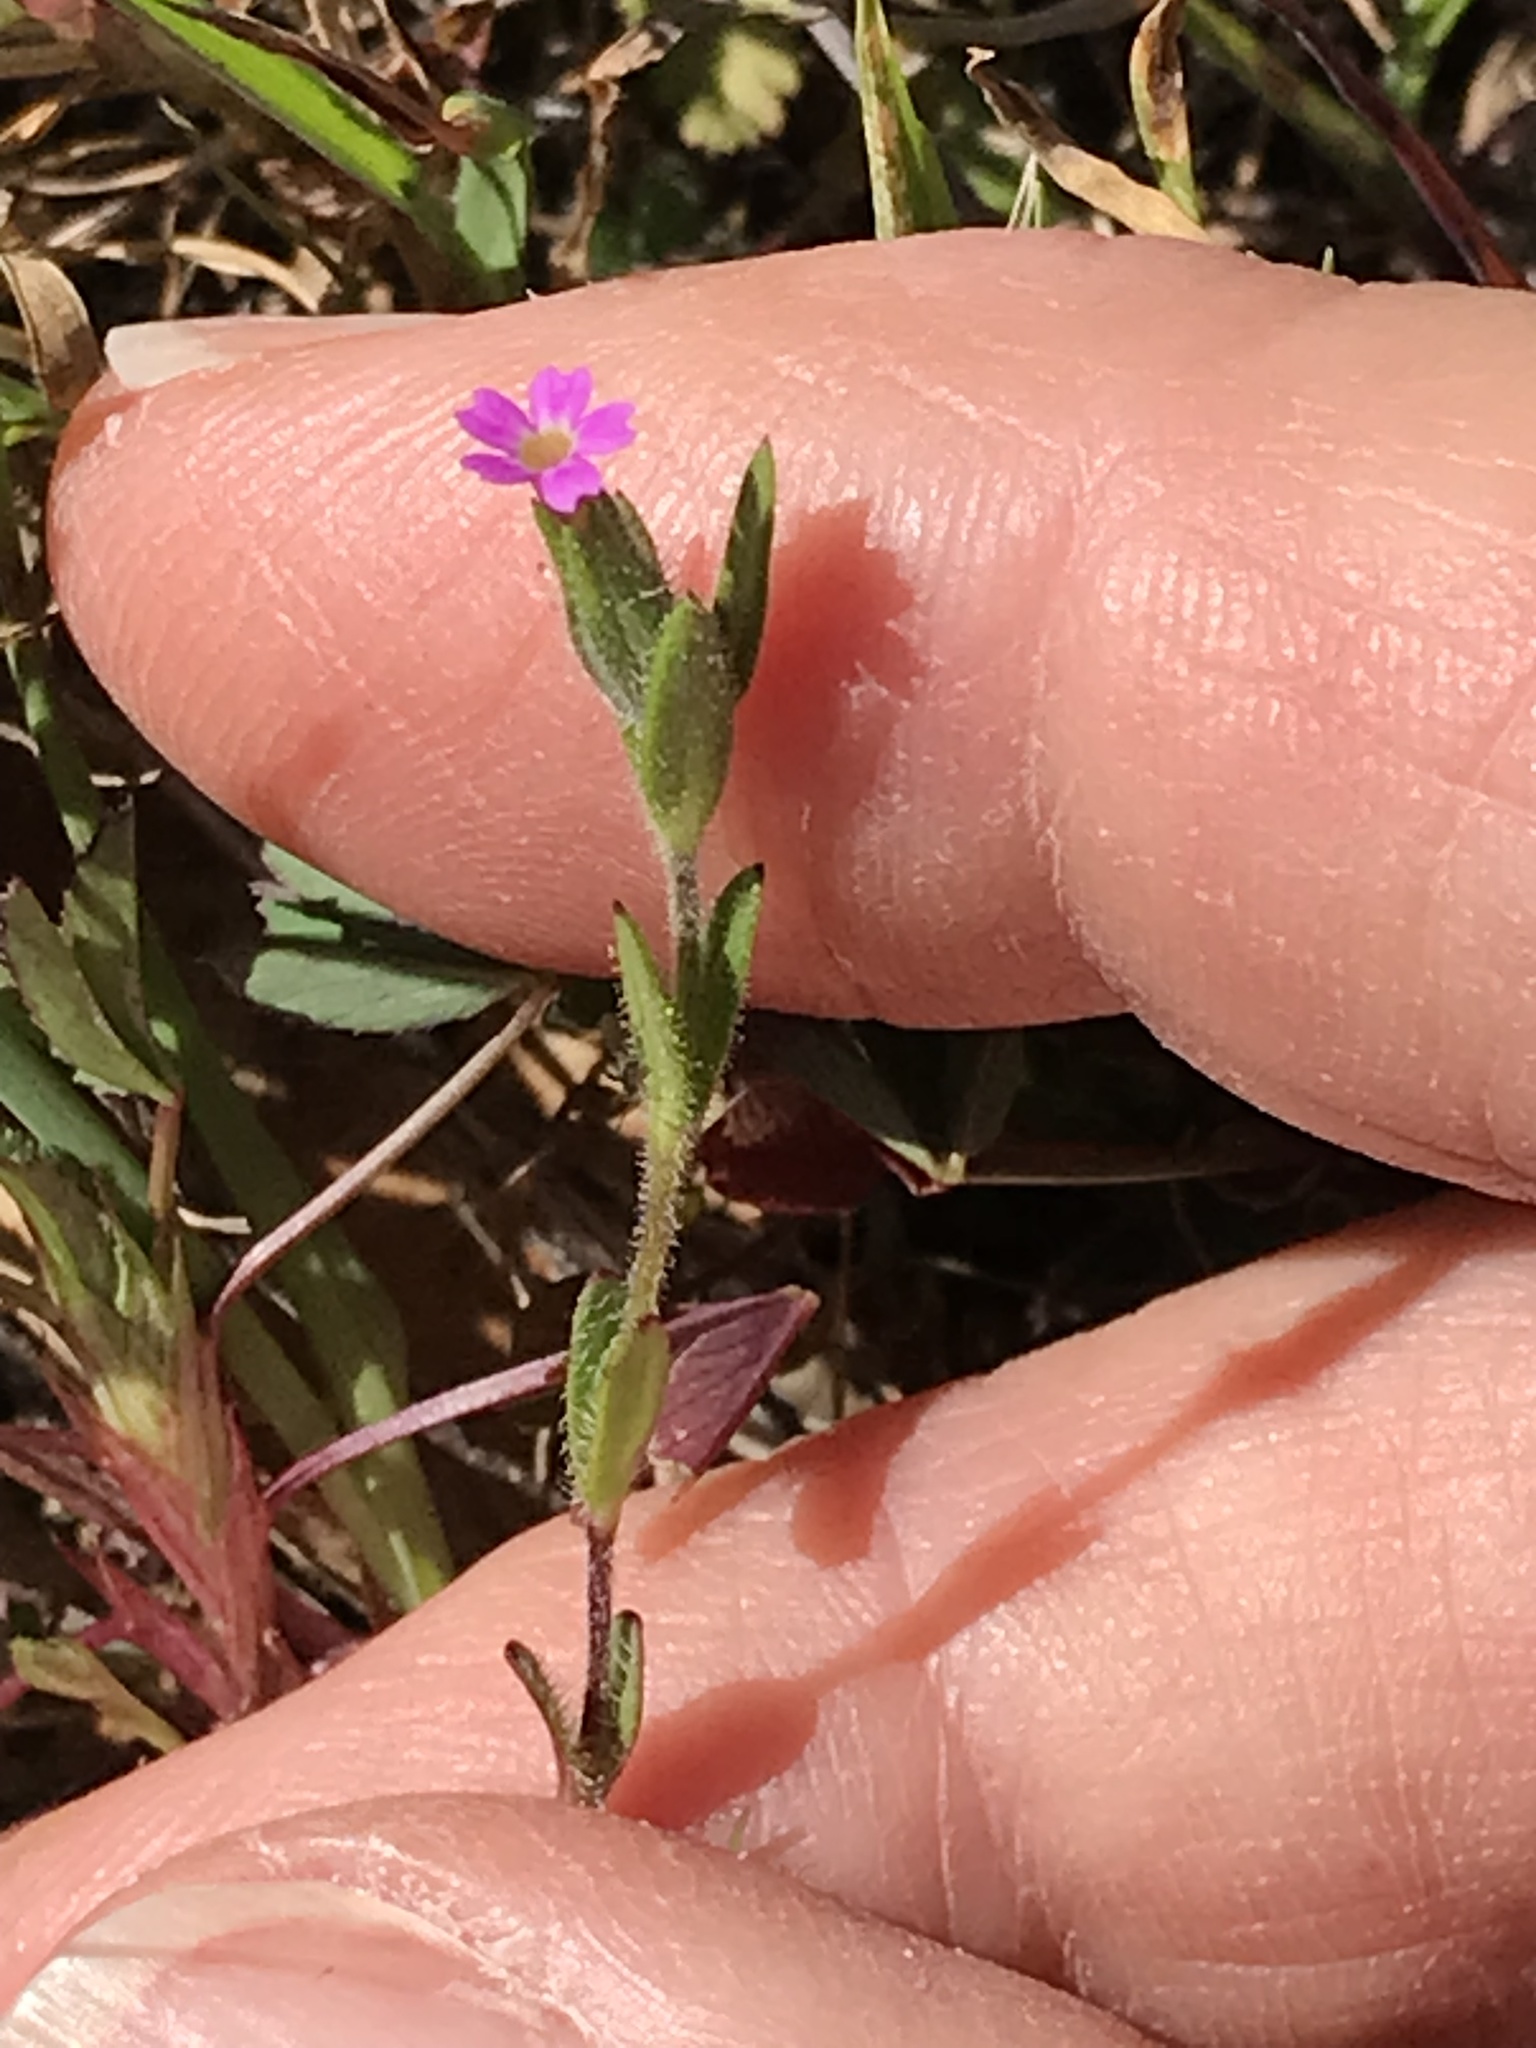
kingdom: Plantae
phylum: Tracheophyta
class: Magnoliopsida
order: Ericales
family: Polemoniaceae
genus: Phlox
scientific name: Phlox gracilis
